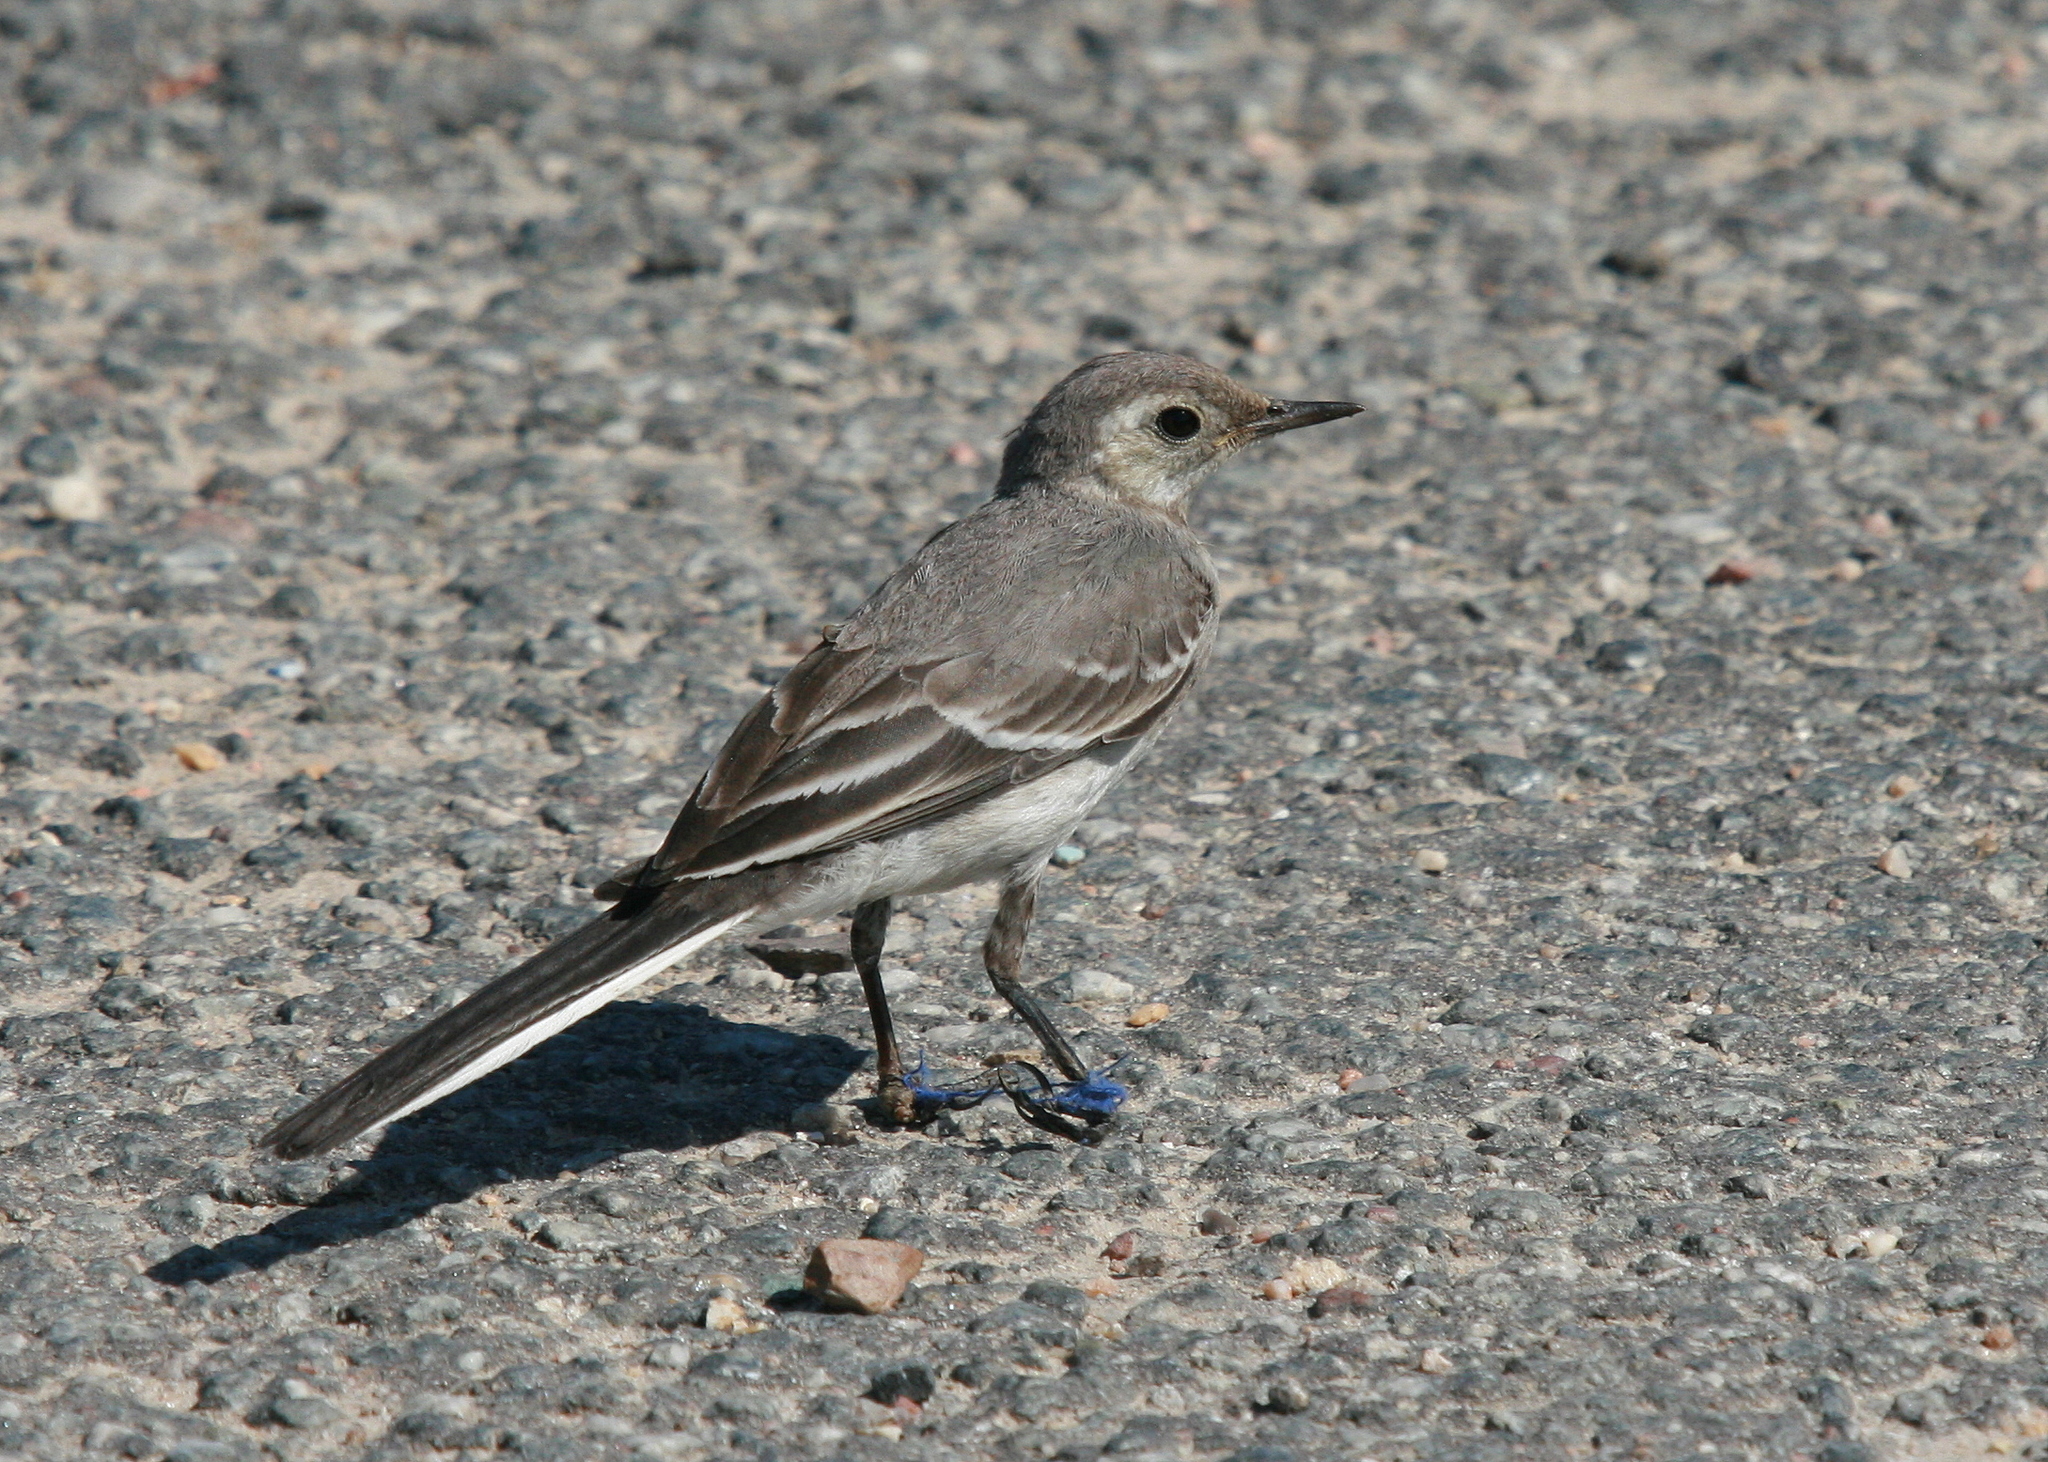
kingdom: Animalia
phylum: Chordata
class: Aves
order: Passeriformes
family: Motacillidae
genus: Motacilla
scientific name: Motacilla alba
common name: White wagtail
